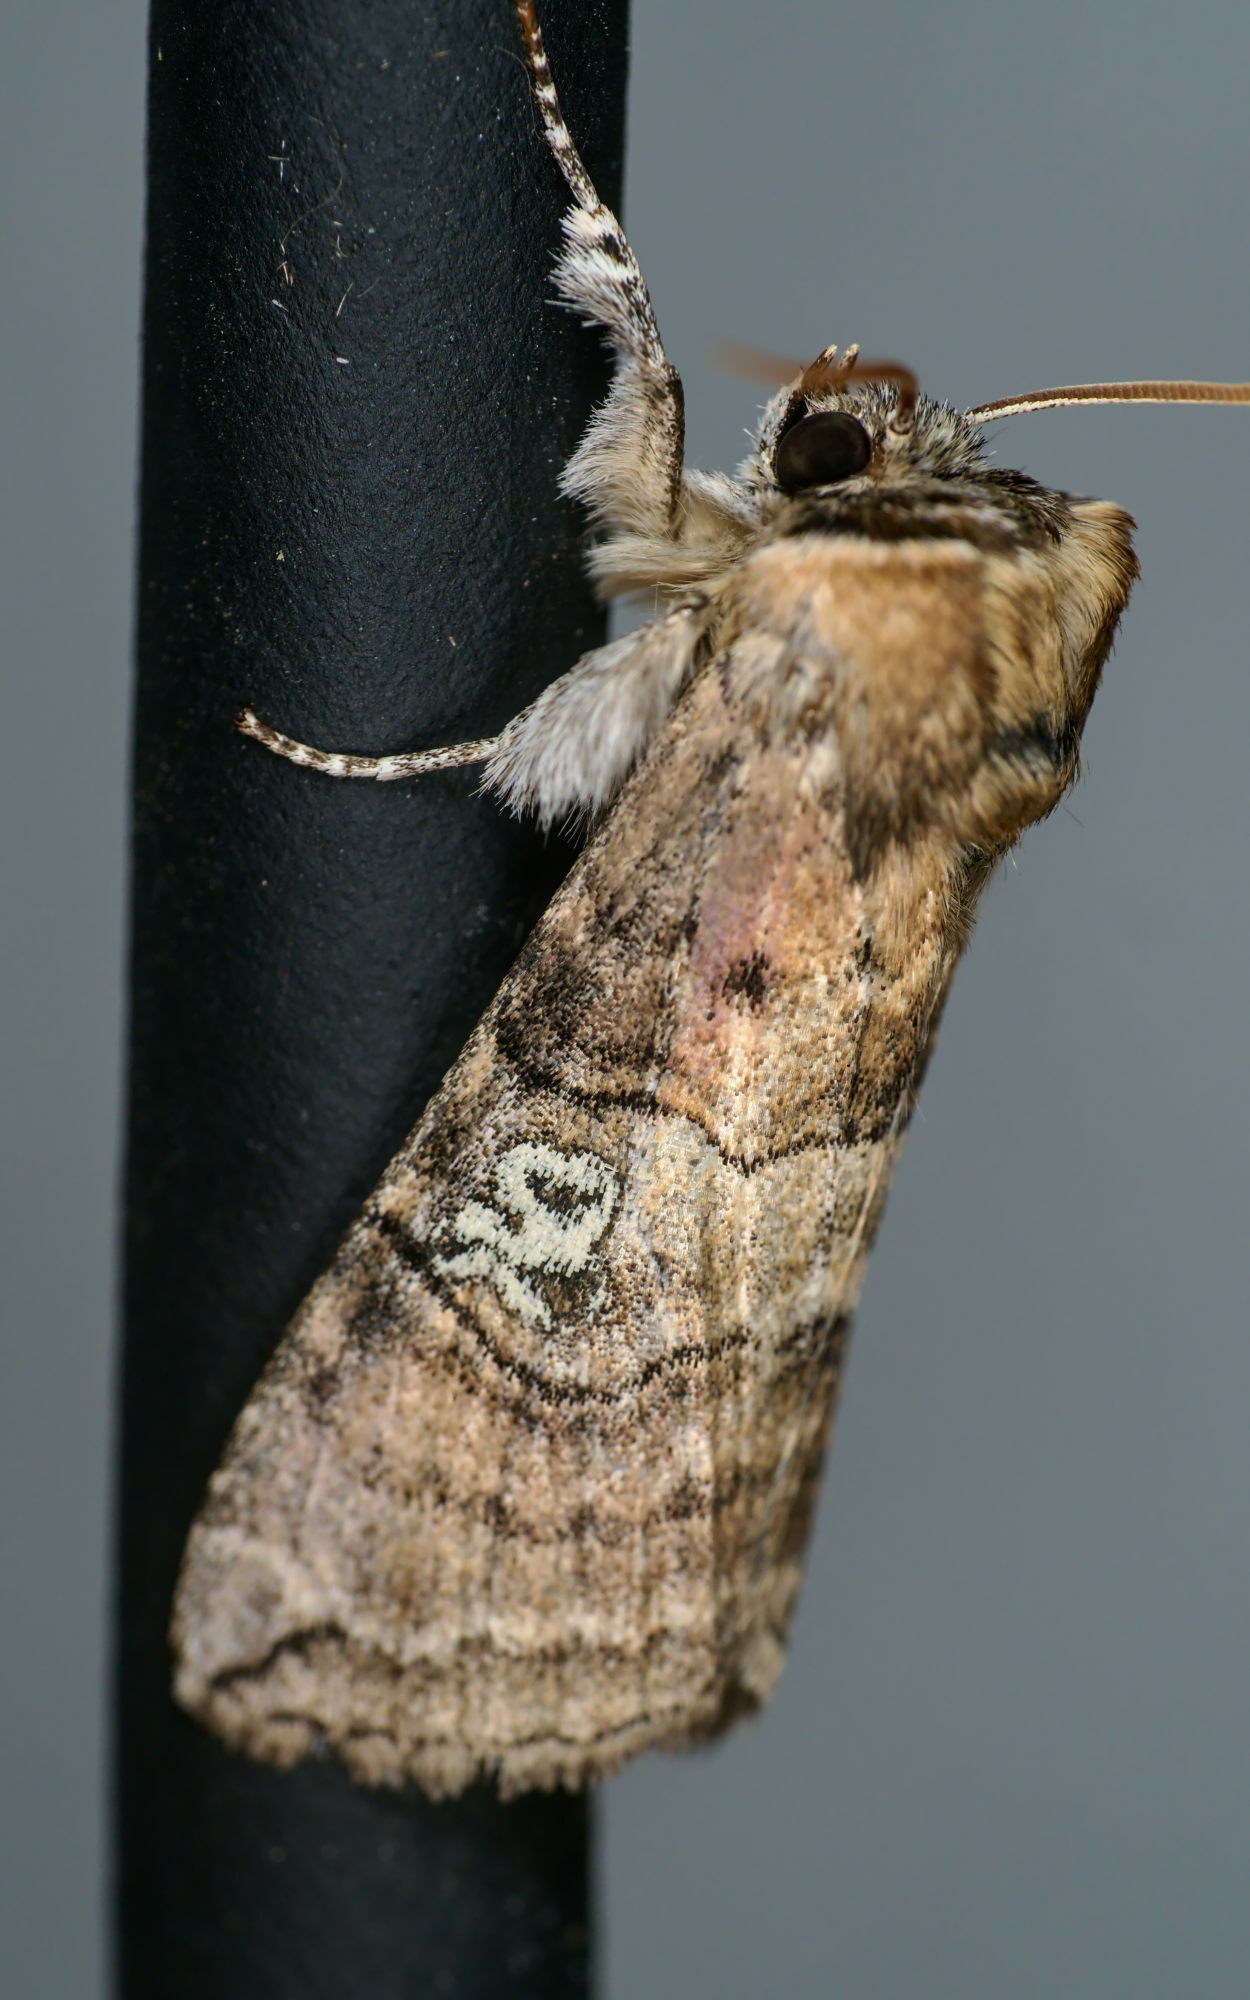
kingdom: Animalia
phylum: Arthropoda
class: Insecta
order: Lepidoptera
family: Drepanidae
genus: Tethea
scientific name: Tethea ocularis
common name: Figure of eighty
